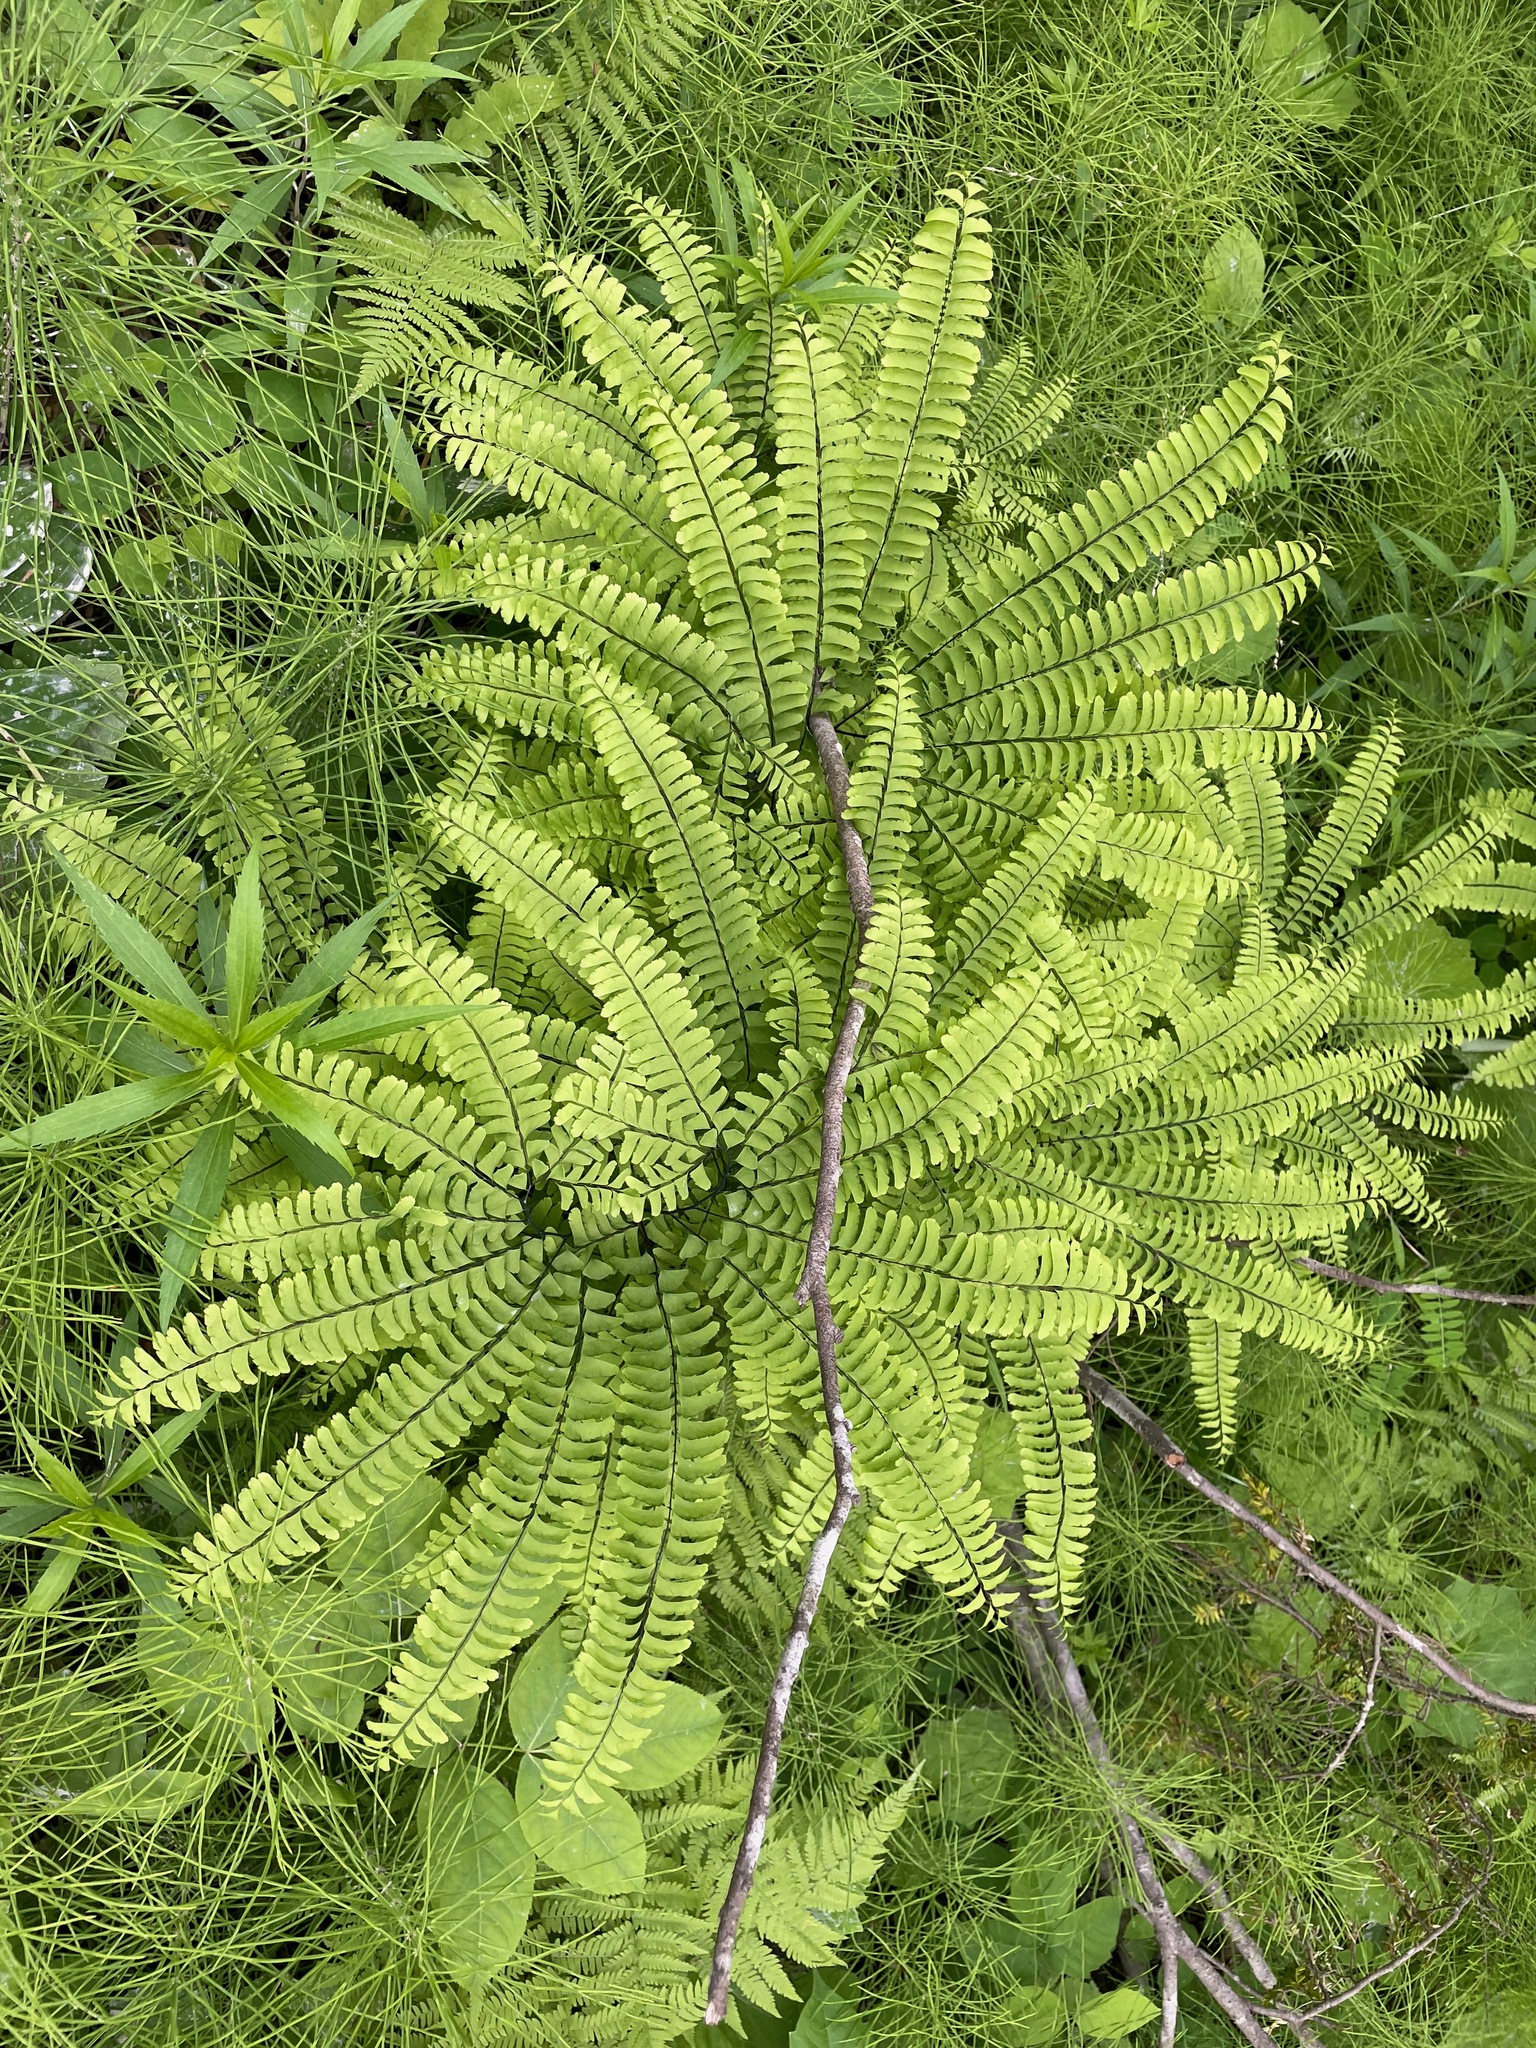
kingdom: Plantae
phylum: Tracheophyta
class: Polypodiopsida
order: Polypodiales
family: Pteridaceae
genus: Adiantum
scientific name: Adiantum pedatum
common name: Five-finger fern
